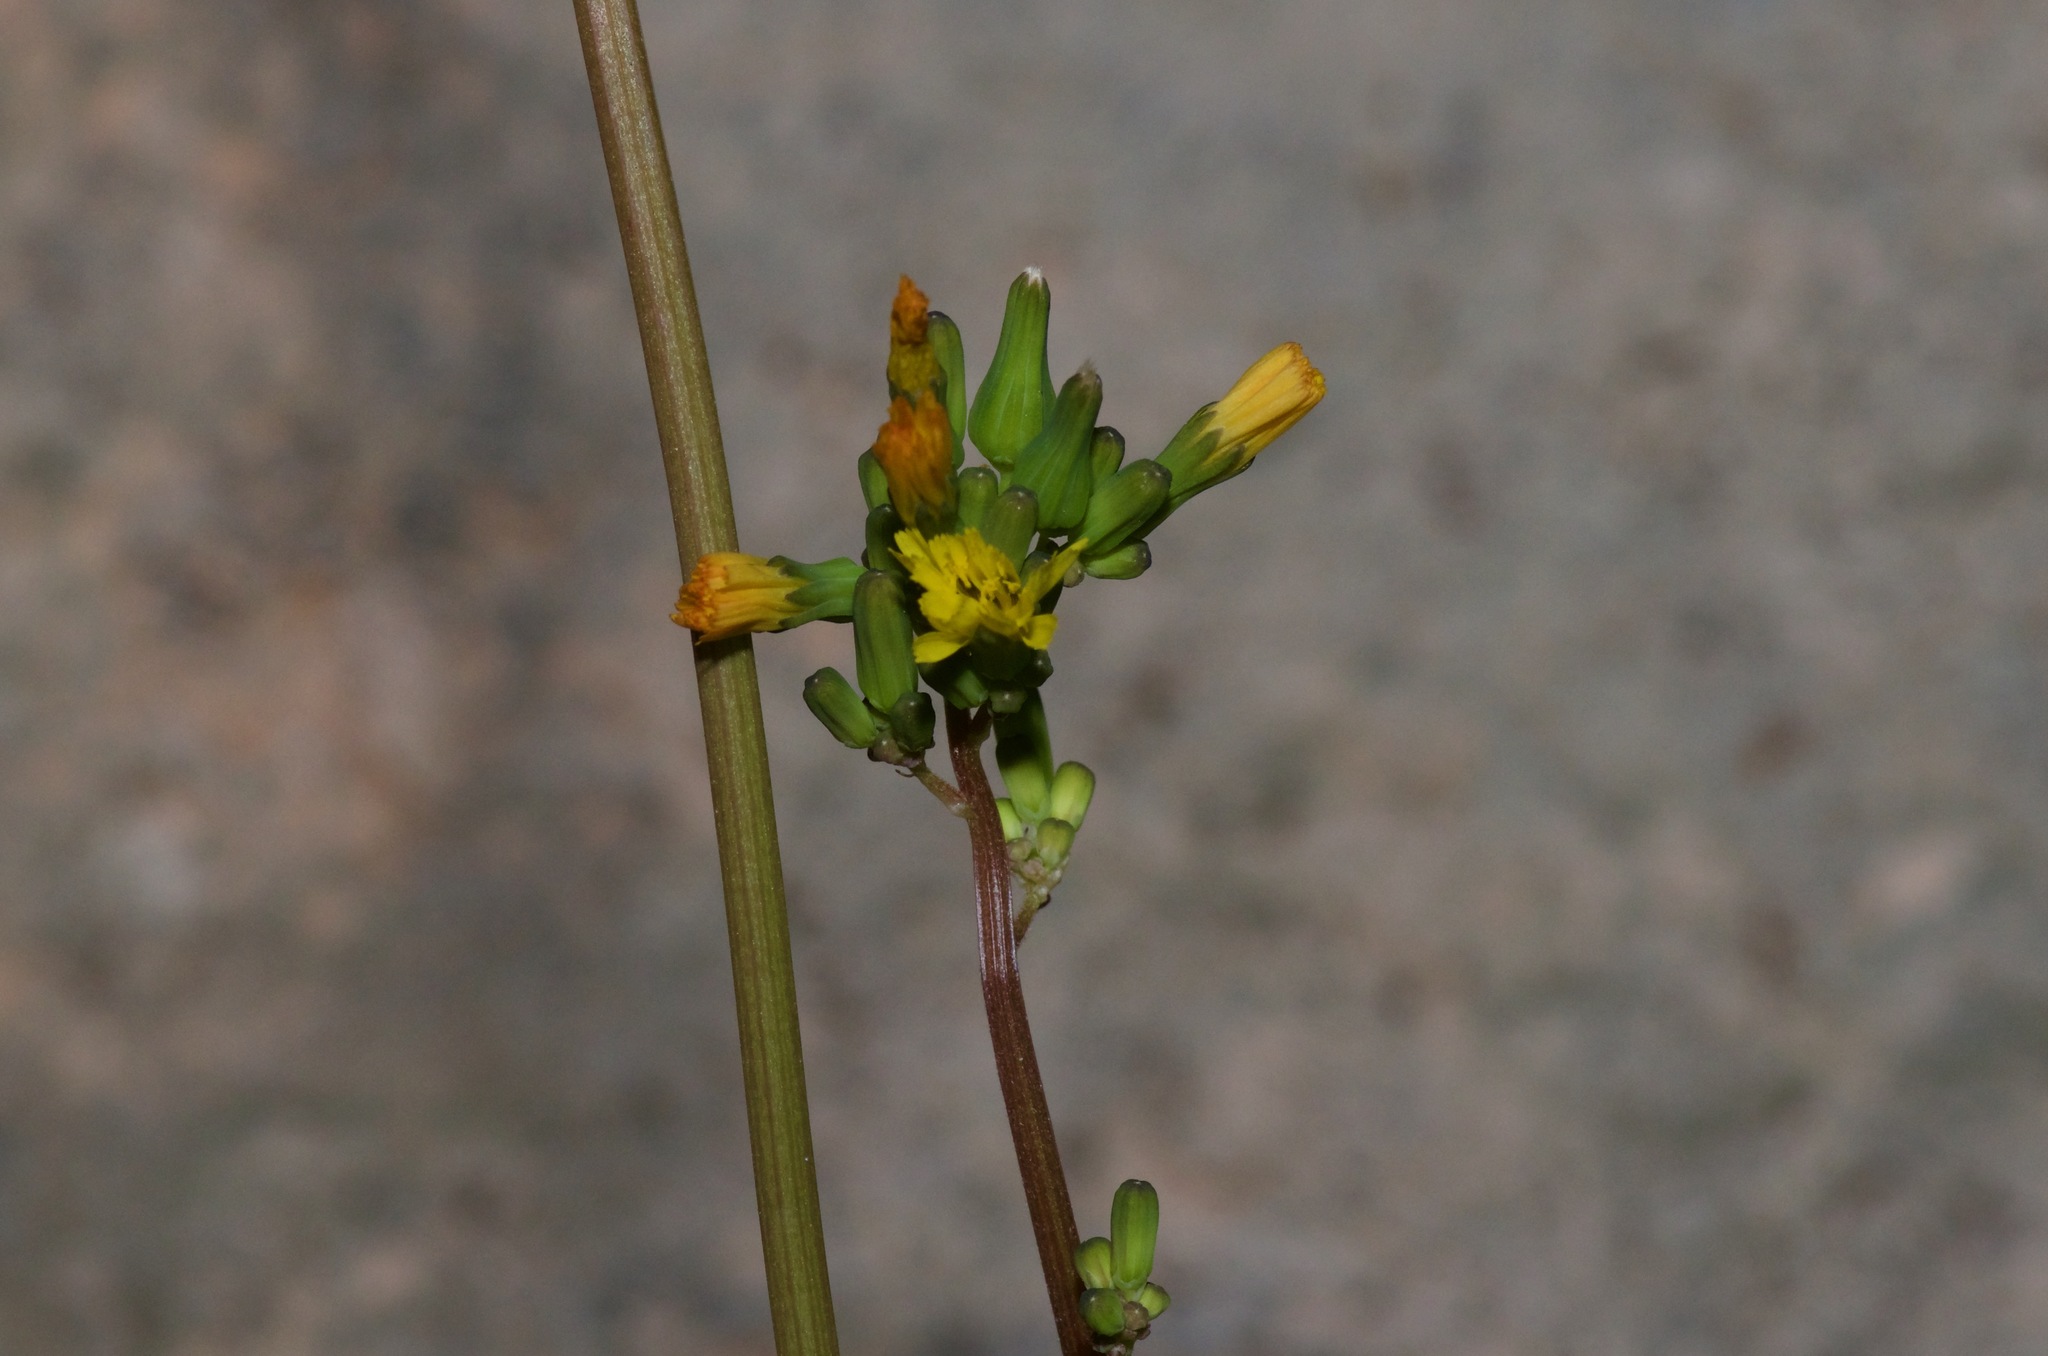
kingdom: Plantae
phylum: Tracheophyta
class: Magnoliopsida
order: Asterales
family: Asteraceae
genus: Youngia
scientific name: Youngia japonica
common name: Oriental false hawksbeard
